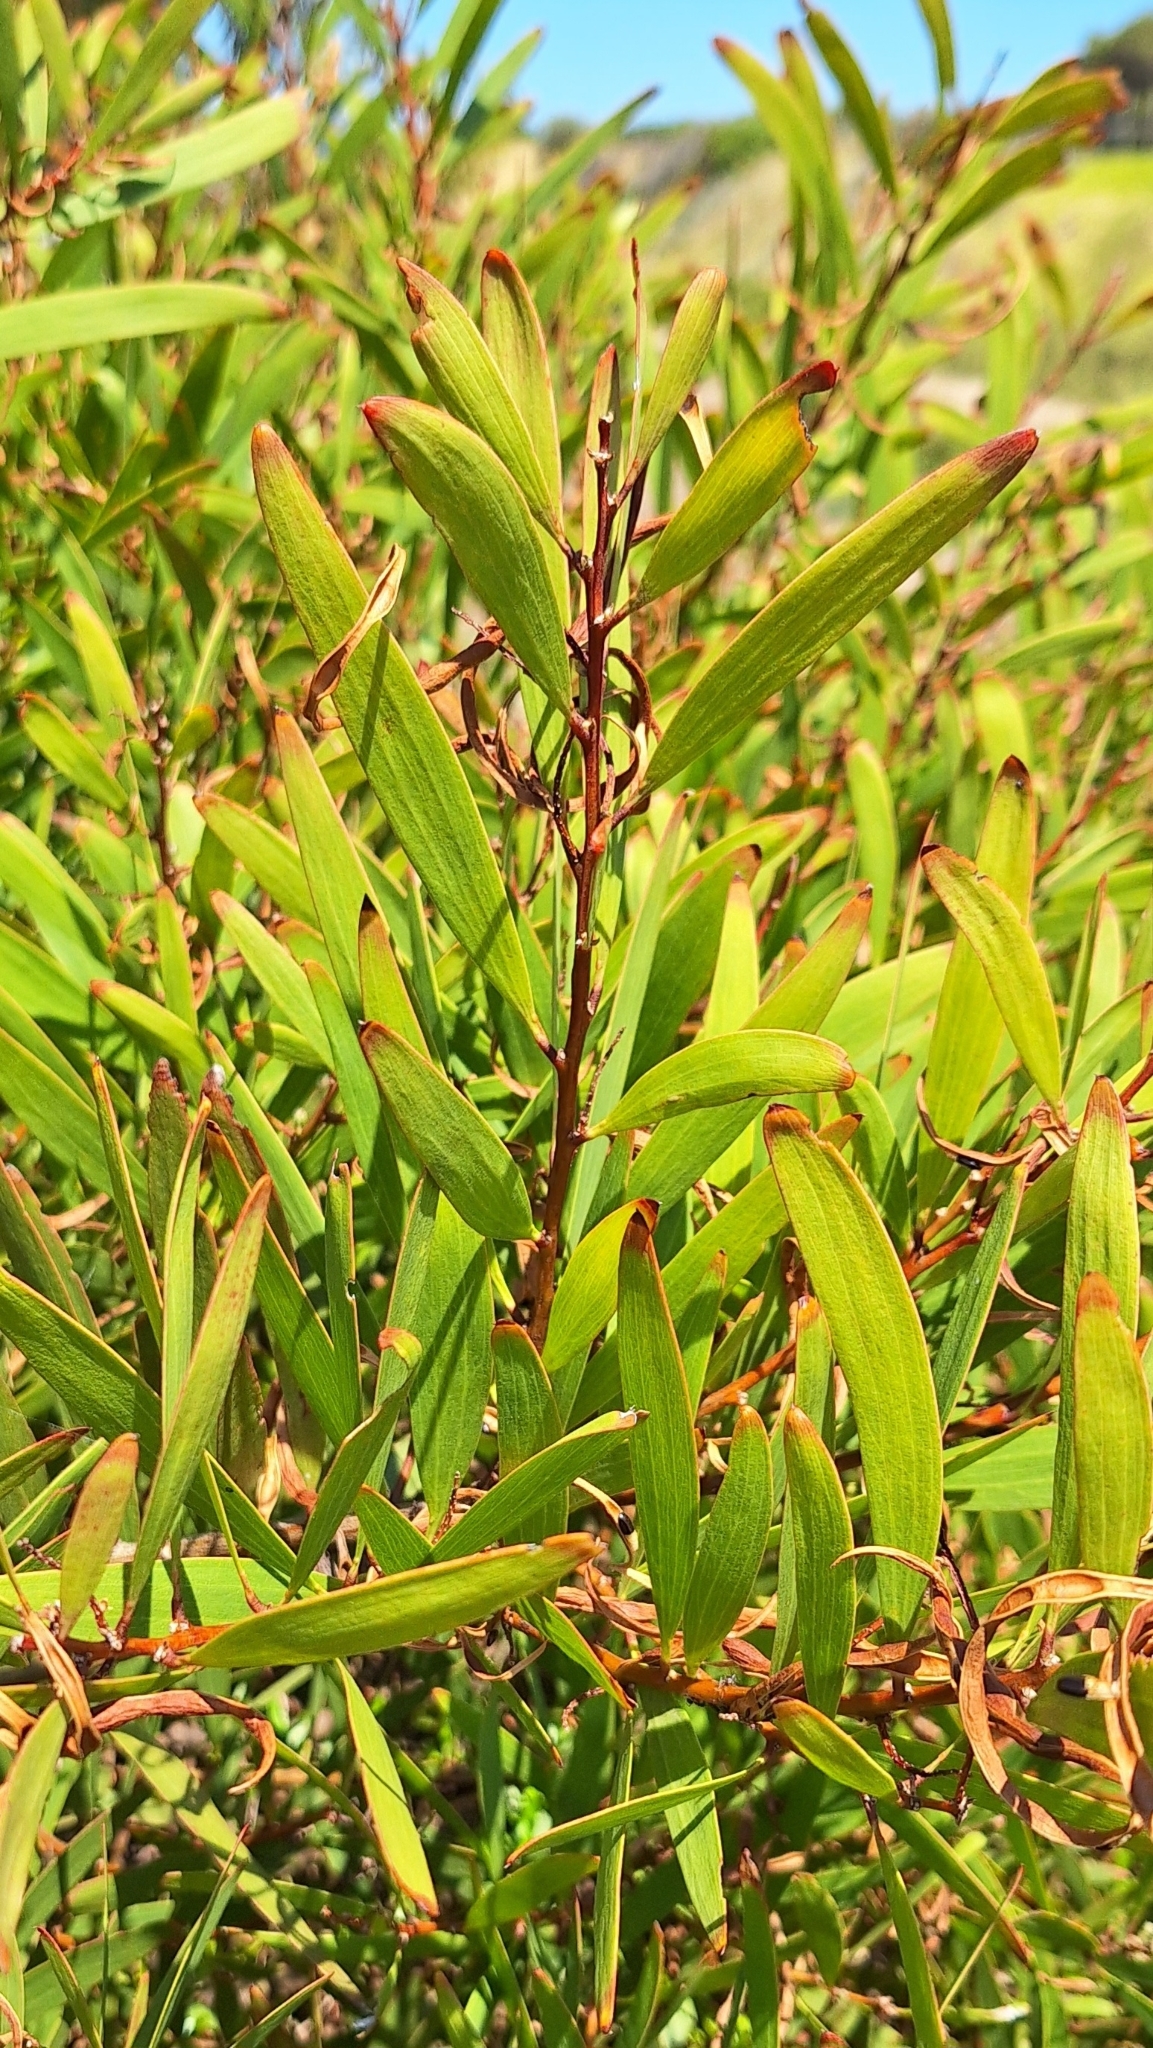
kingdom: Plantae
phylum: Tracheophyta
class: Magnoliopsida
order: Fabales
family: Fabaceae
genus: Acacia
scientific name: Acacia longifolia
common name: Sydney golden wattle
